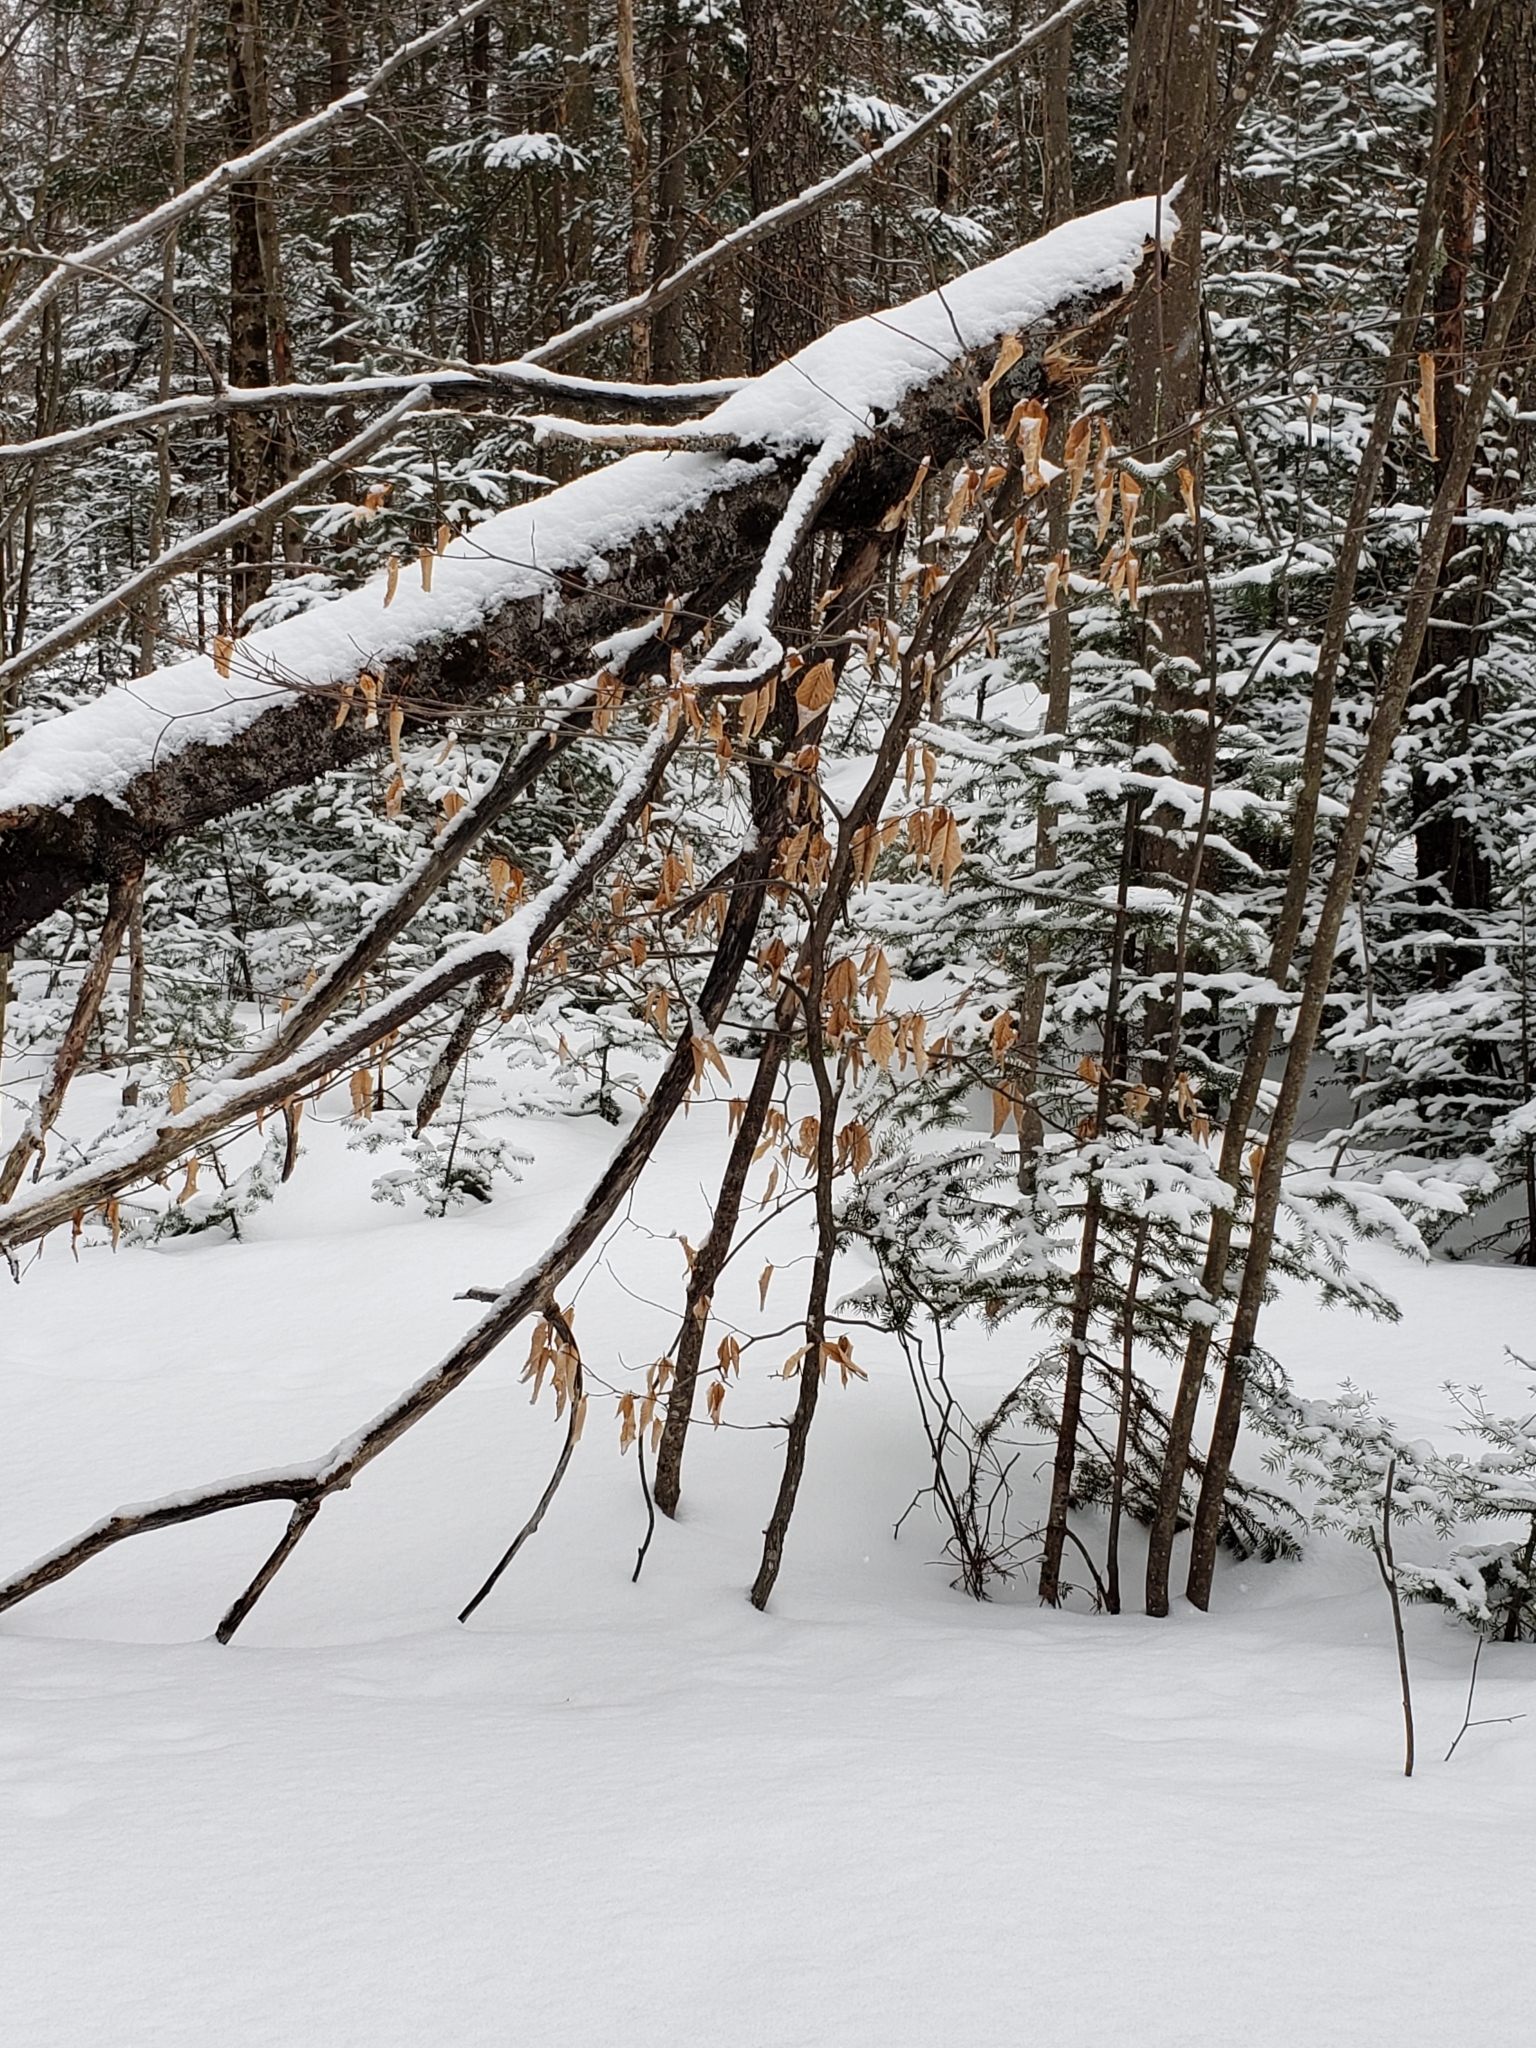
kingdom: Plantae
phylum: Tracheophyta
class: Magnoliopsida
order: Fagales
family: Fagaceae
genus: Fagus
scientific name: Fagus grandifolia
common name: American beech
